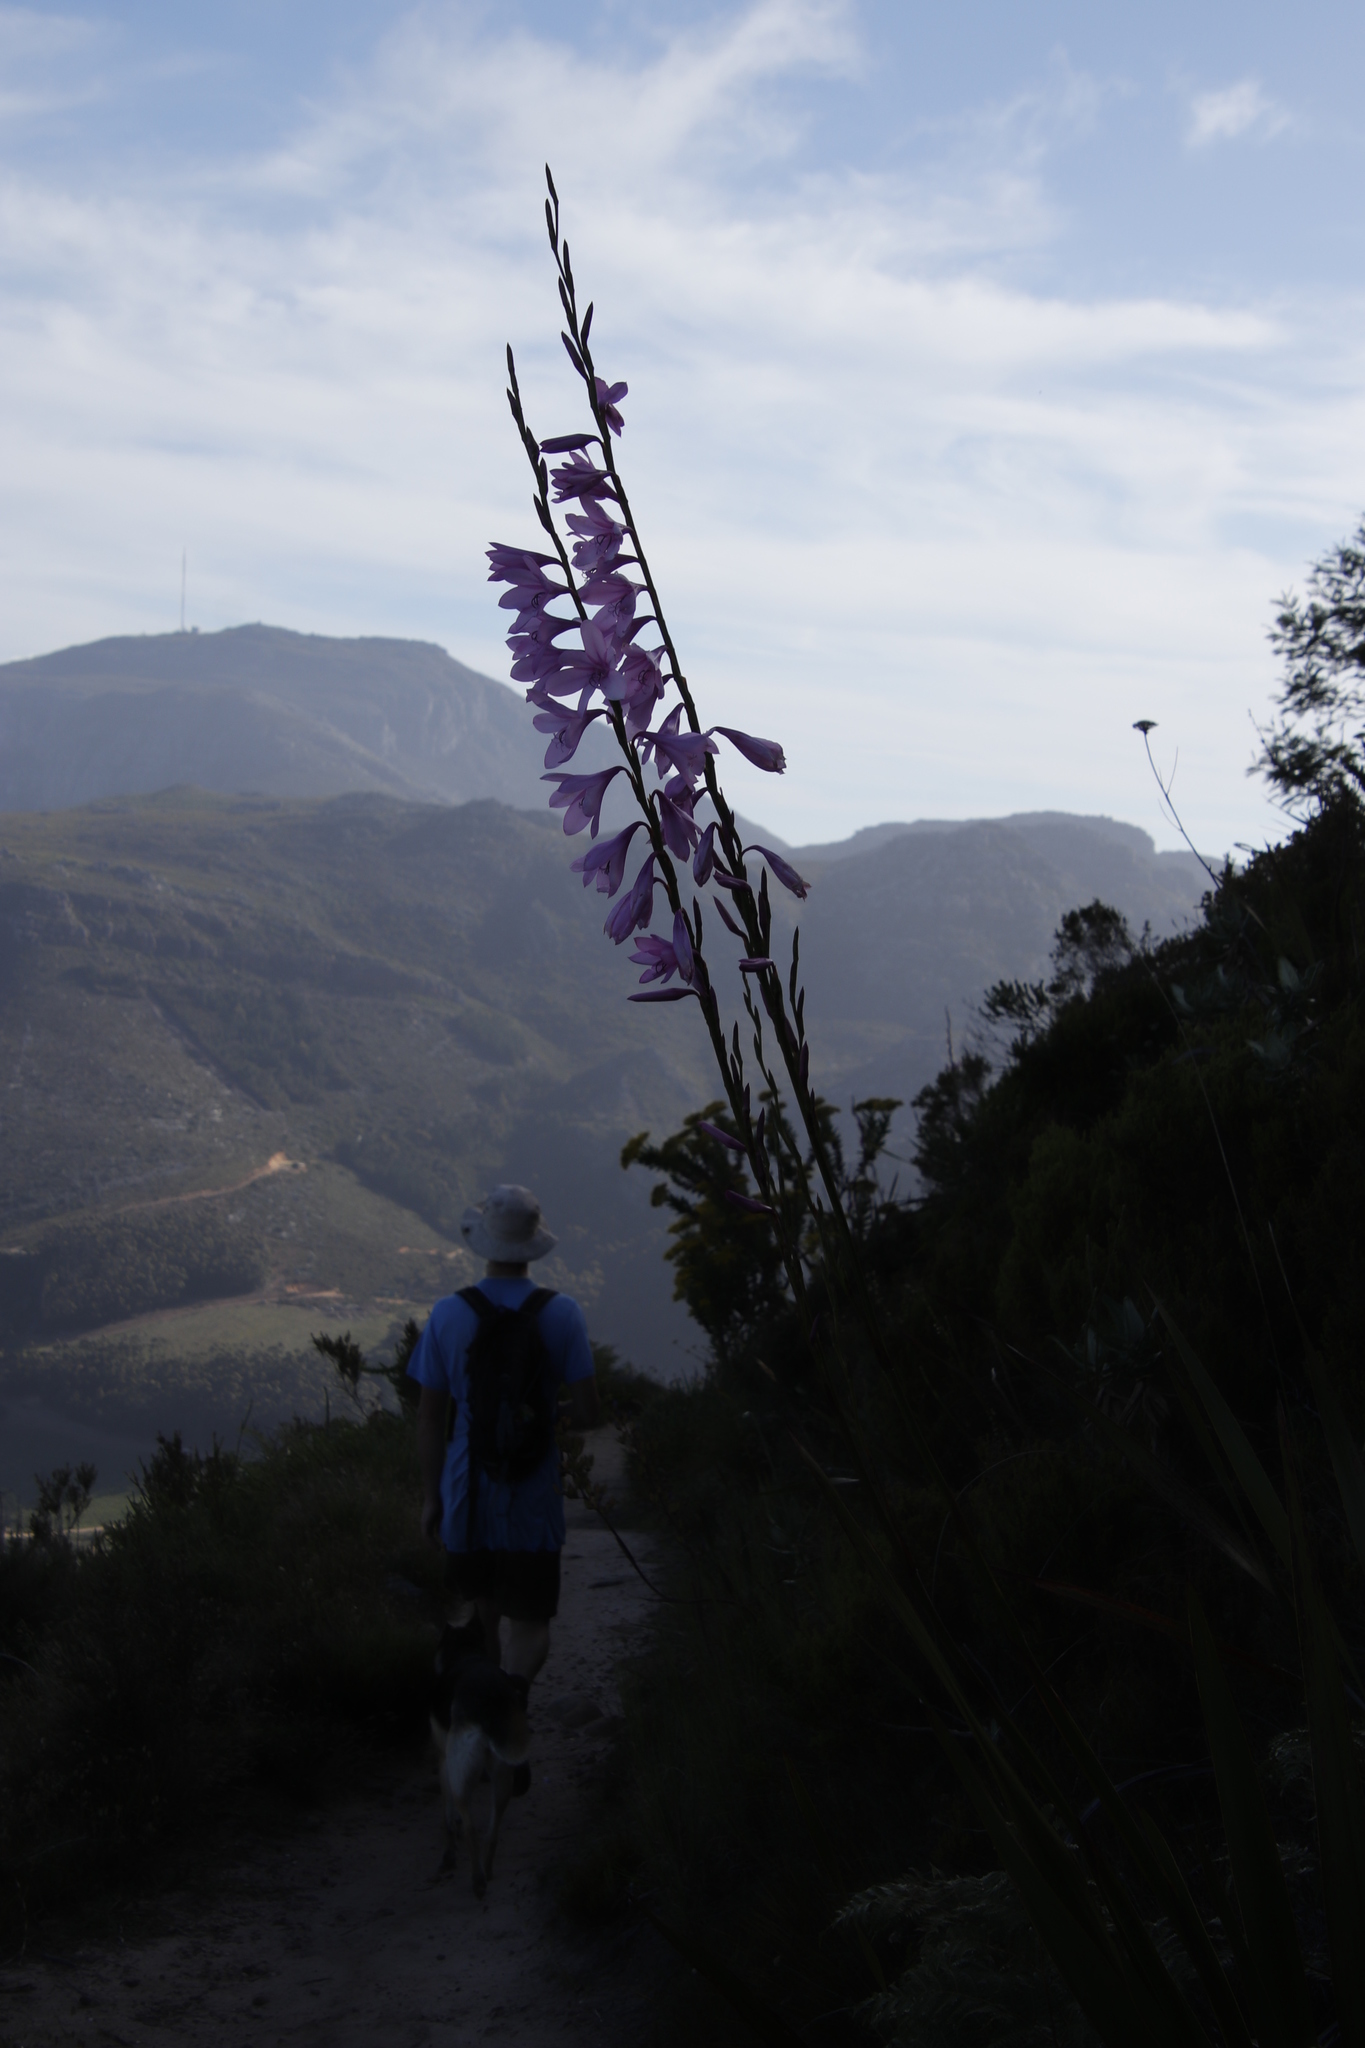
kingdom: Plantae
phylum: Tracheophyta
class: Liliopsida
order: Asparagales
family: Iridaceae
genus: Watsonia
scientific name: Watsonia borbonica
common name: Bugle-lily
